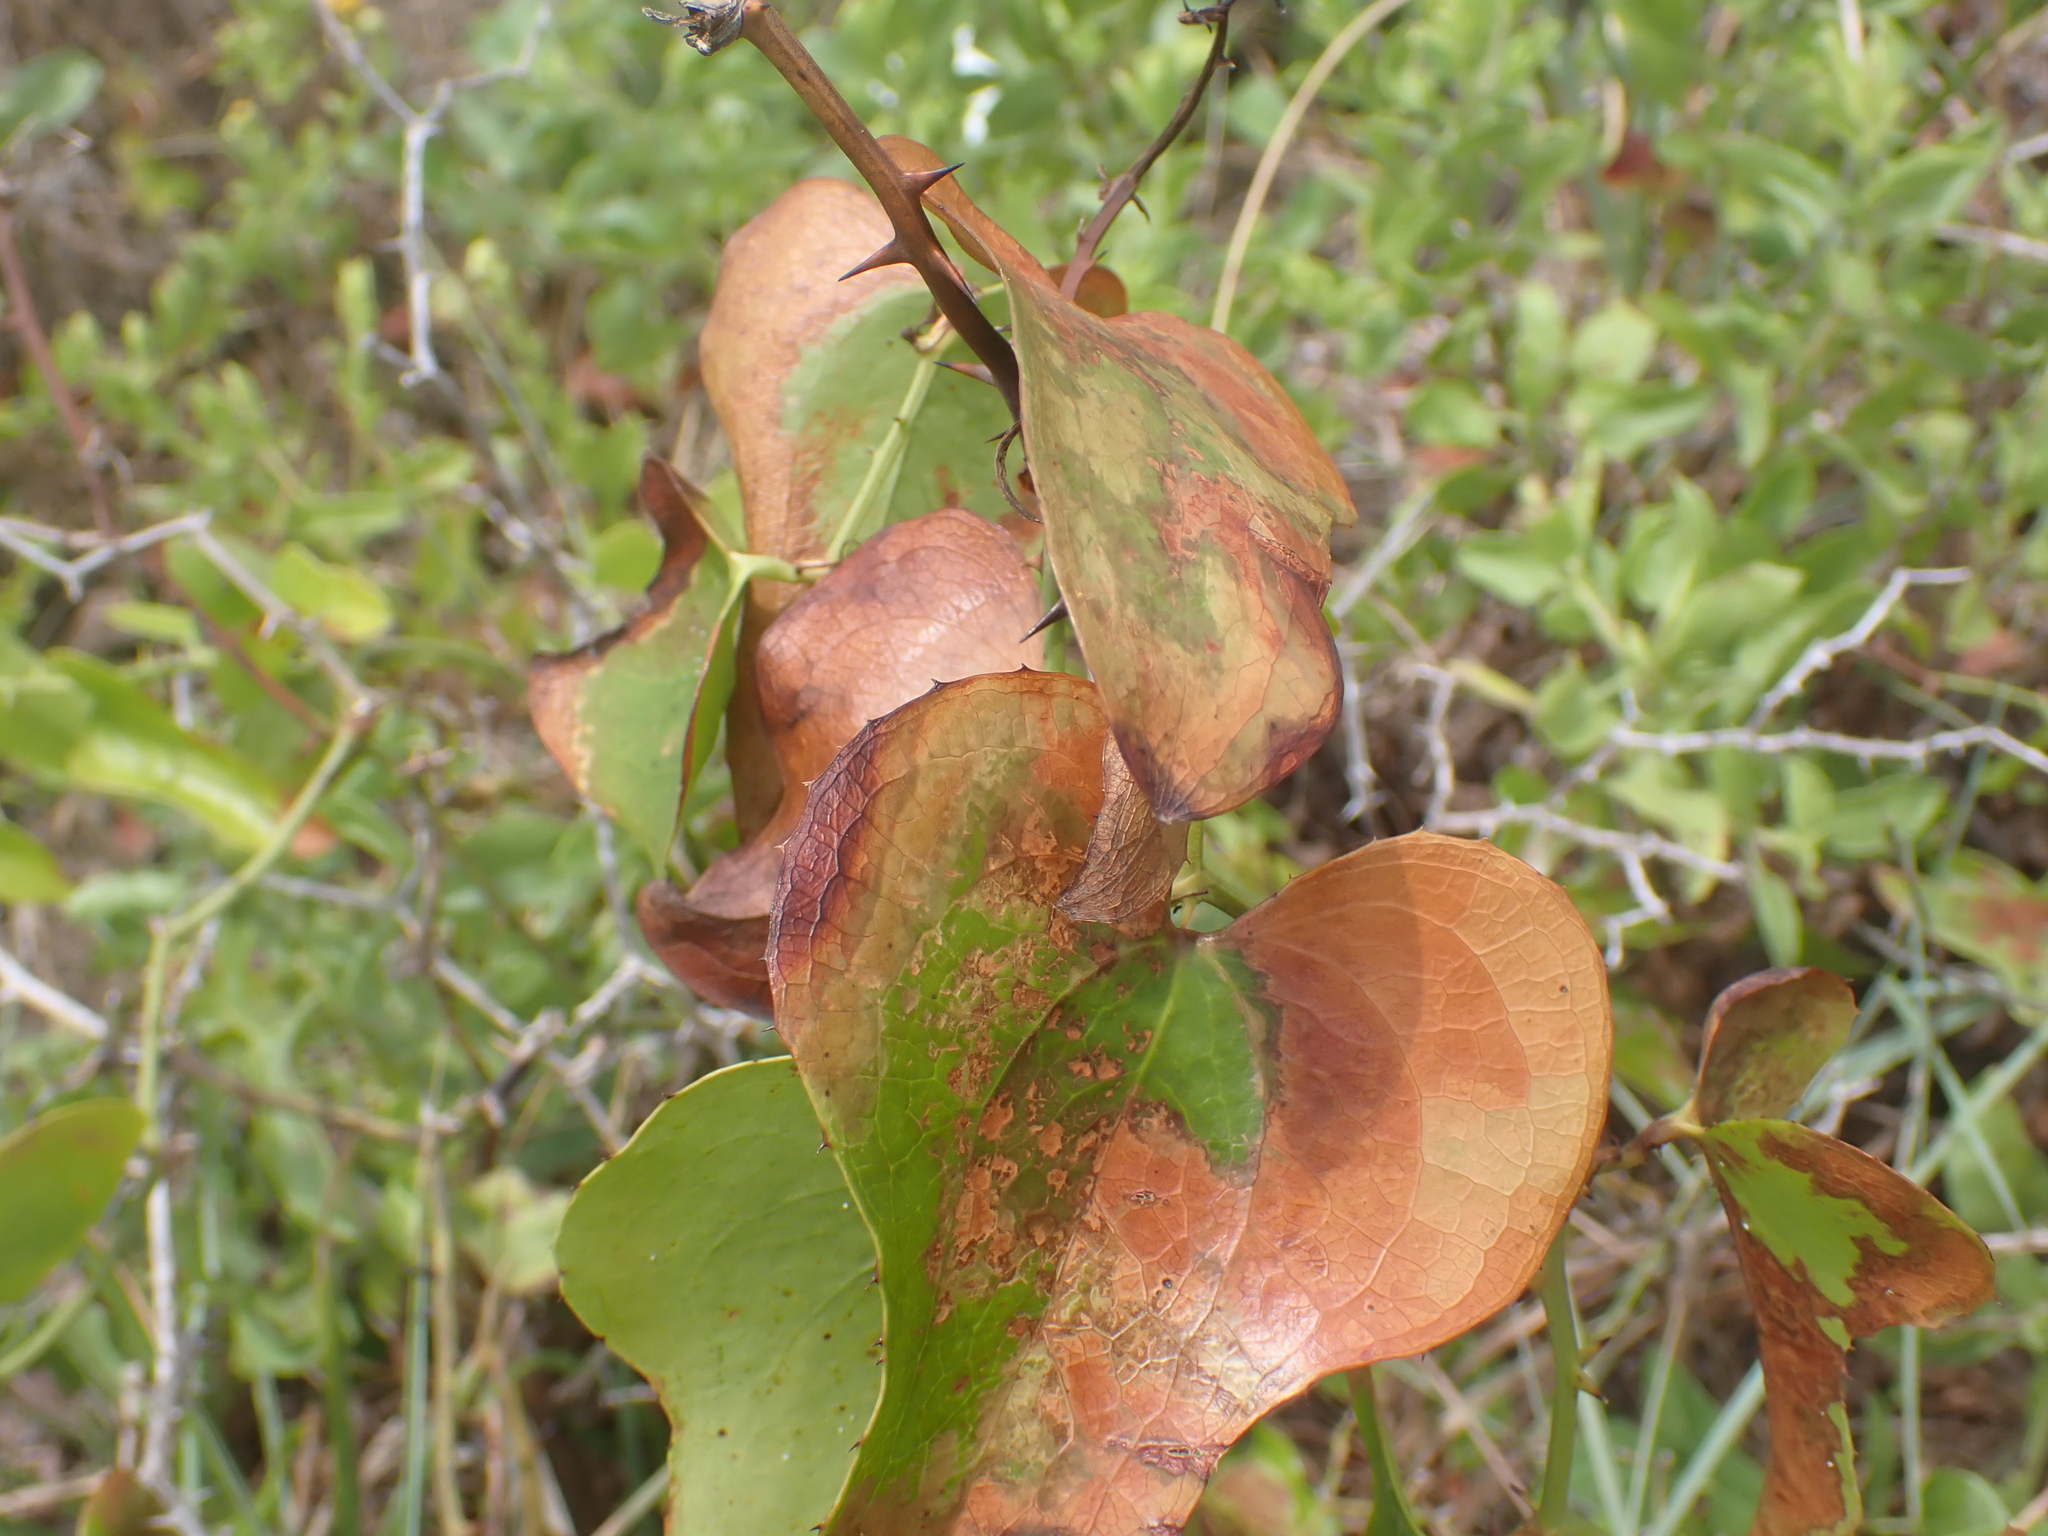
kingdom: Plantae
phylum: Tracheophyta
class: Liliopsida
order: Liliales
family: Smilacaceae
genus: Smilax
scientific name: Smilax bona-nox
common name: Catbrier
